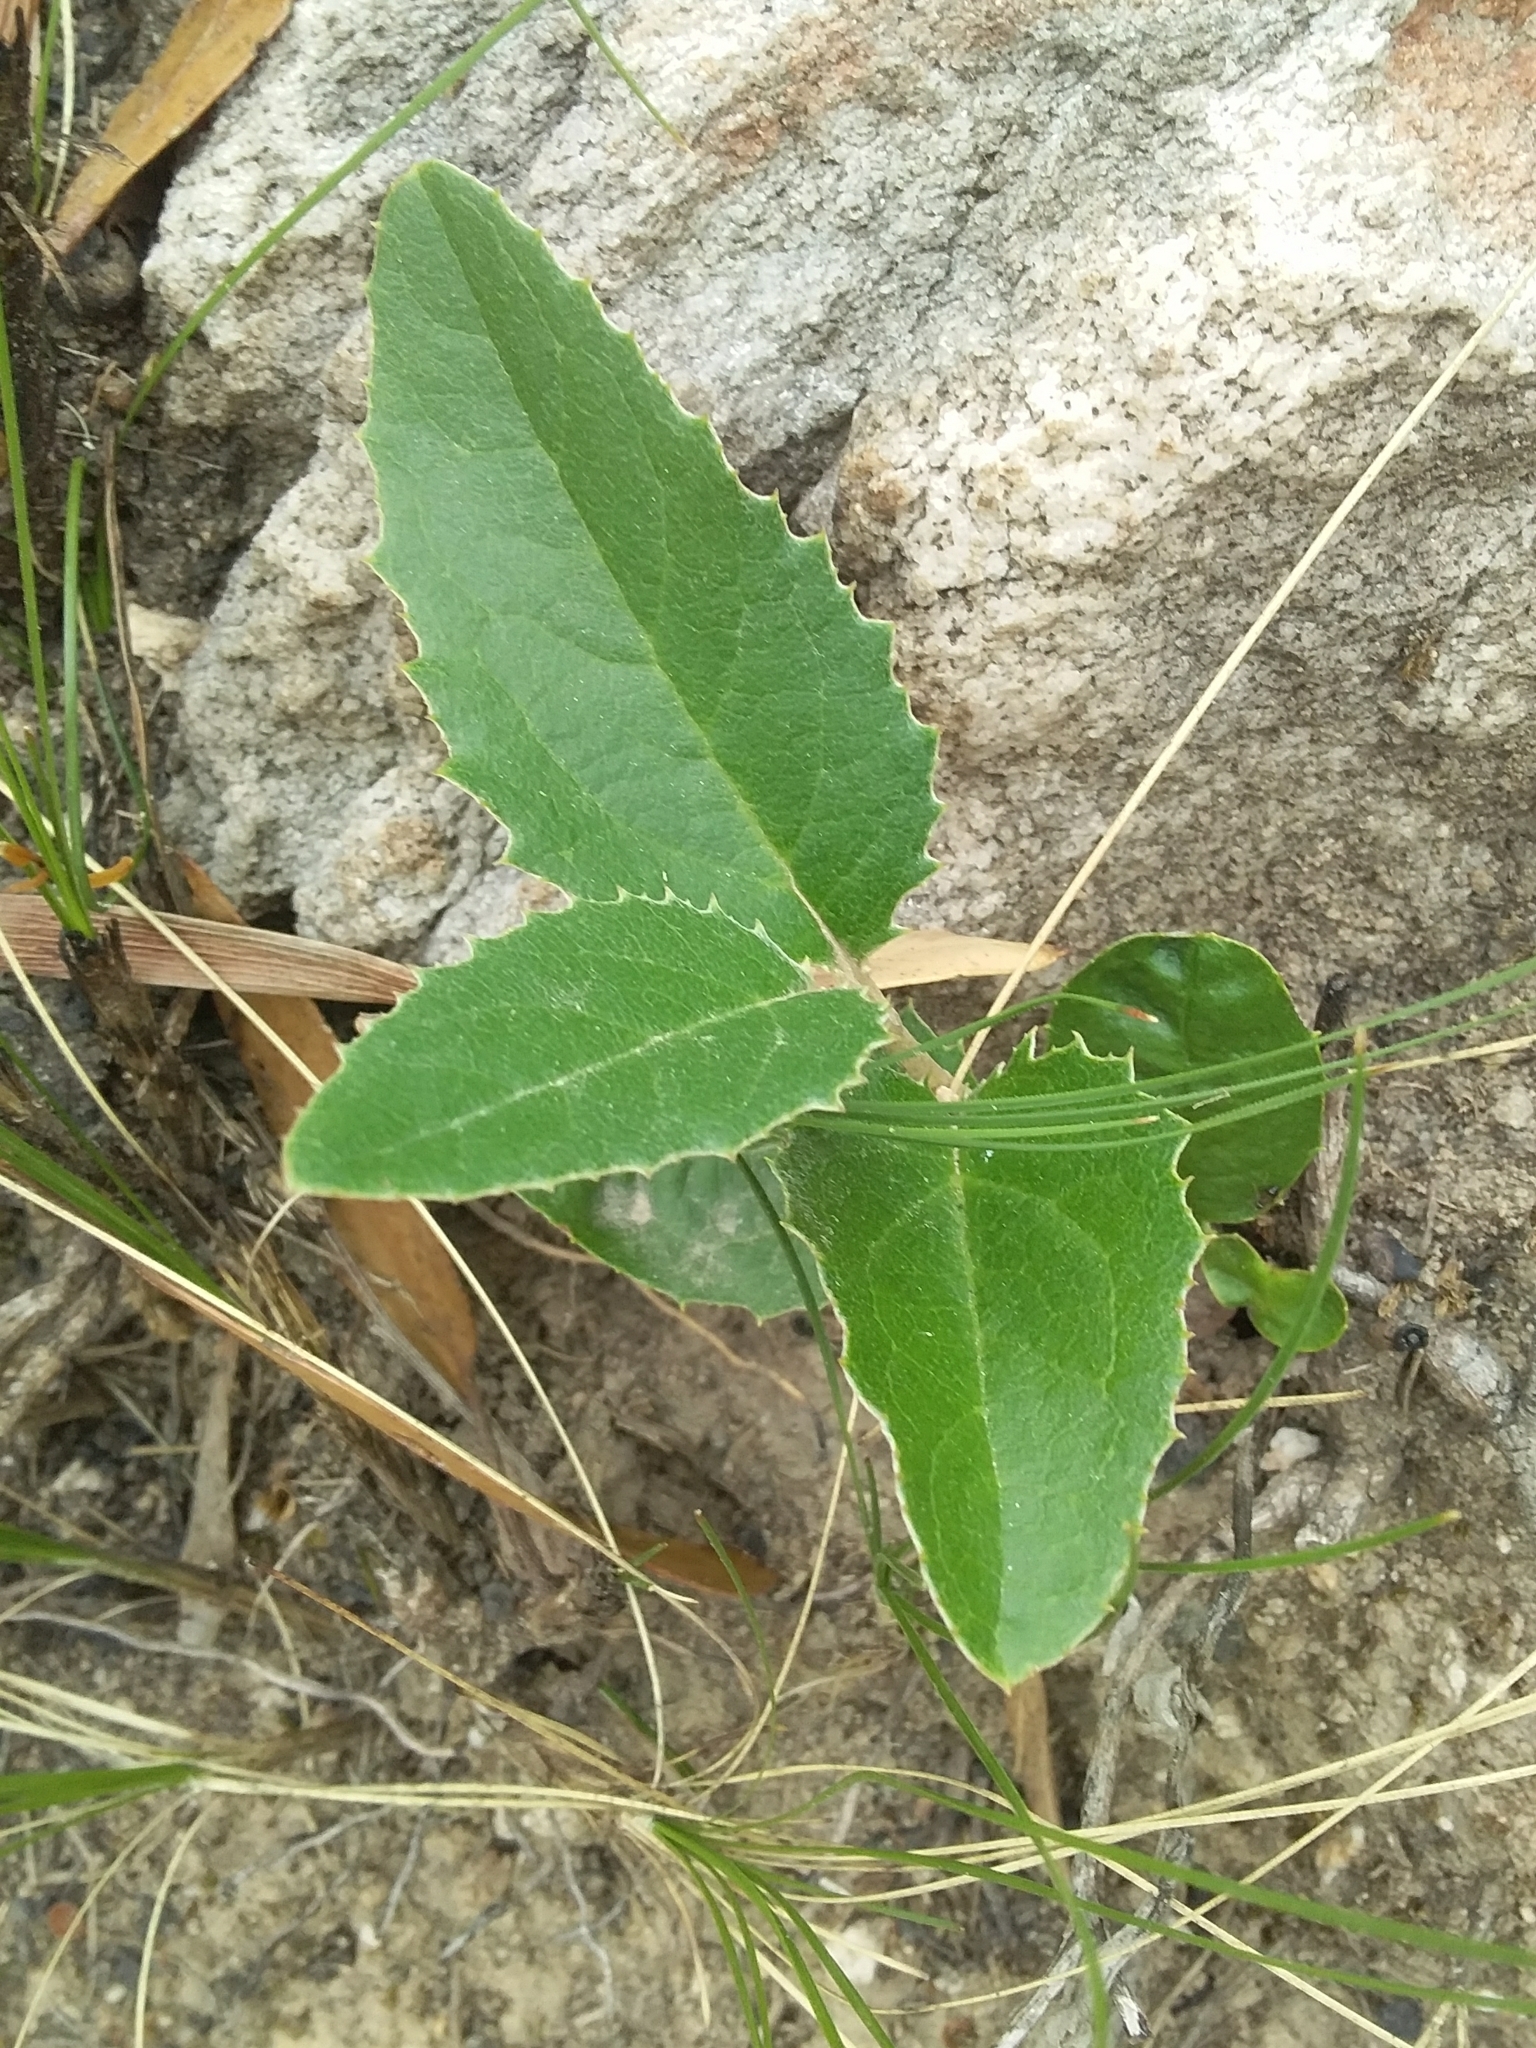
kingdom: Plantae
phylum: Tracheophyta
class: Magnoliopsida
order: Asterales
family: Asteraceae
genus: Olearia
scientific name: Olearia grandiflora
